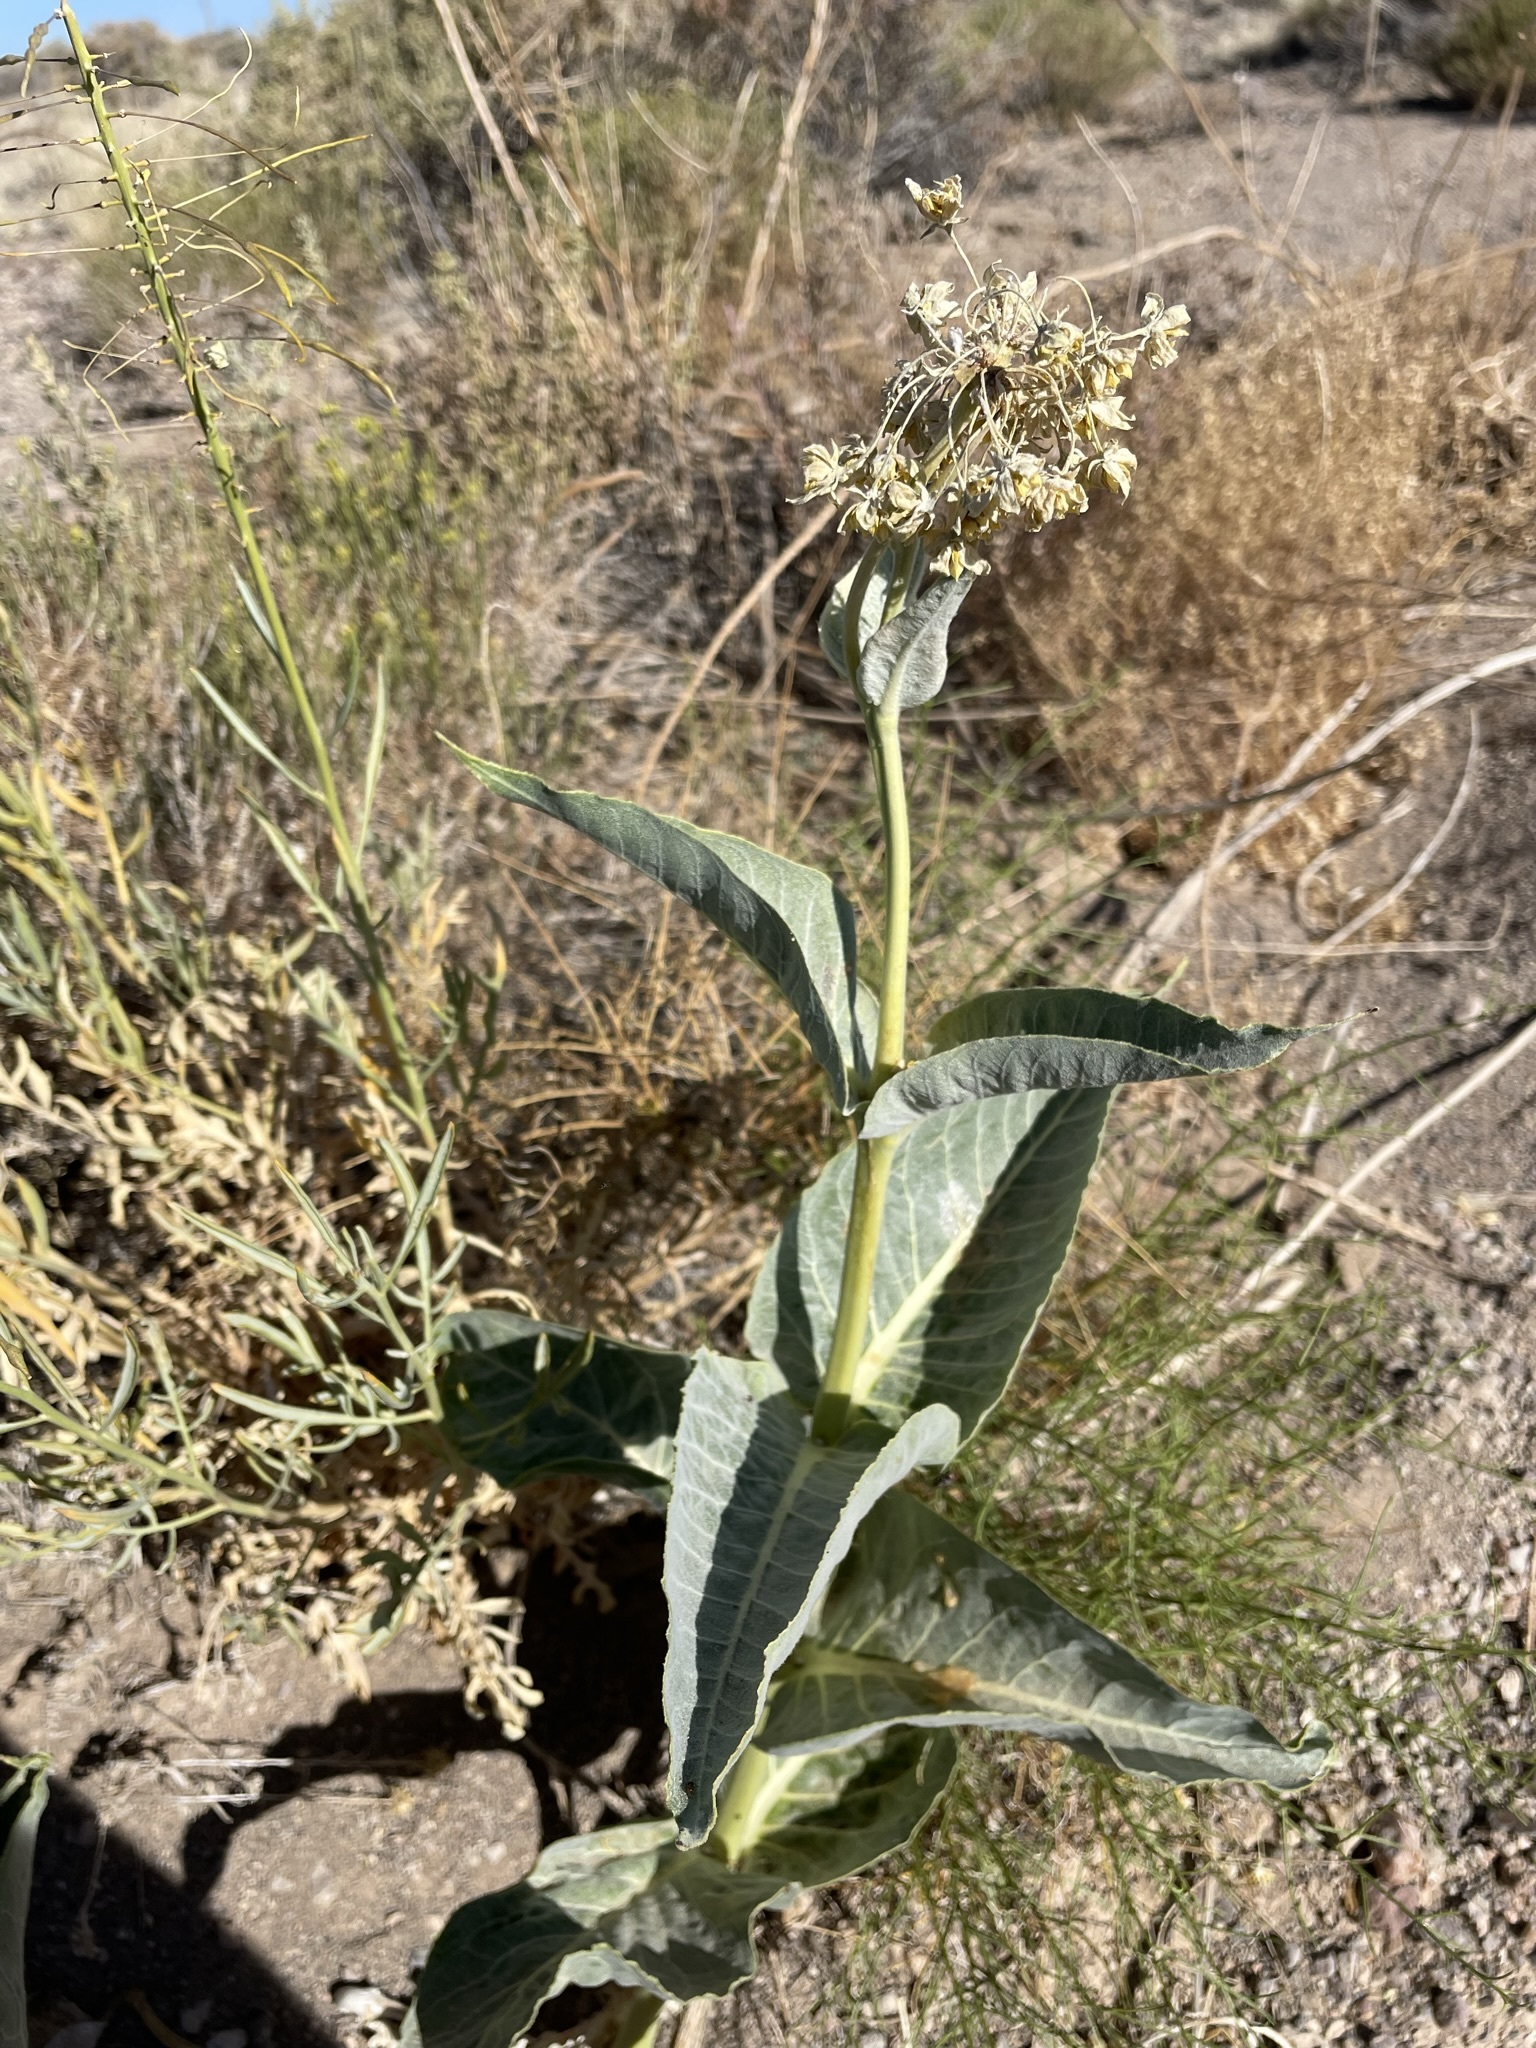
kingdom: Plantae
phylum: Tracheophyta
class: Magnoliopsida
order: Gentianales
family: Apocynaceae
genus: Asclepias
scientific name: Asclepias erosa
